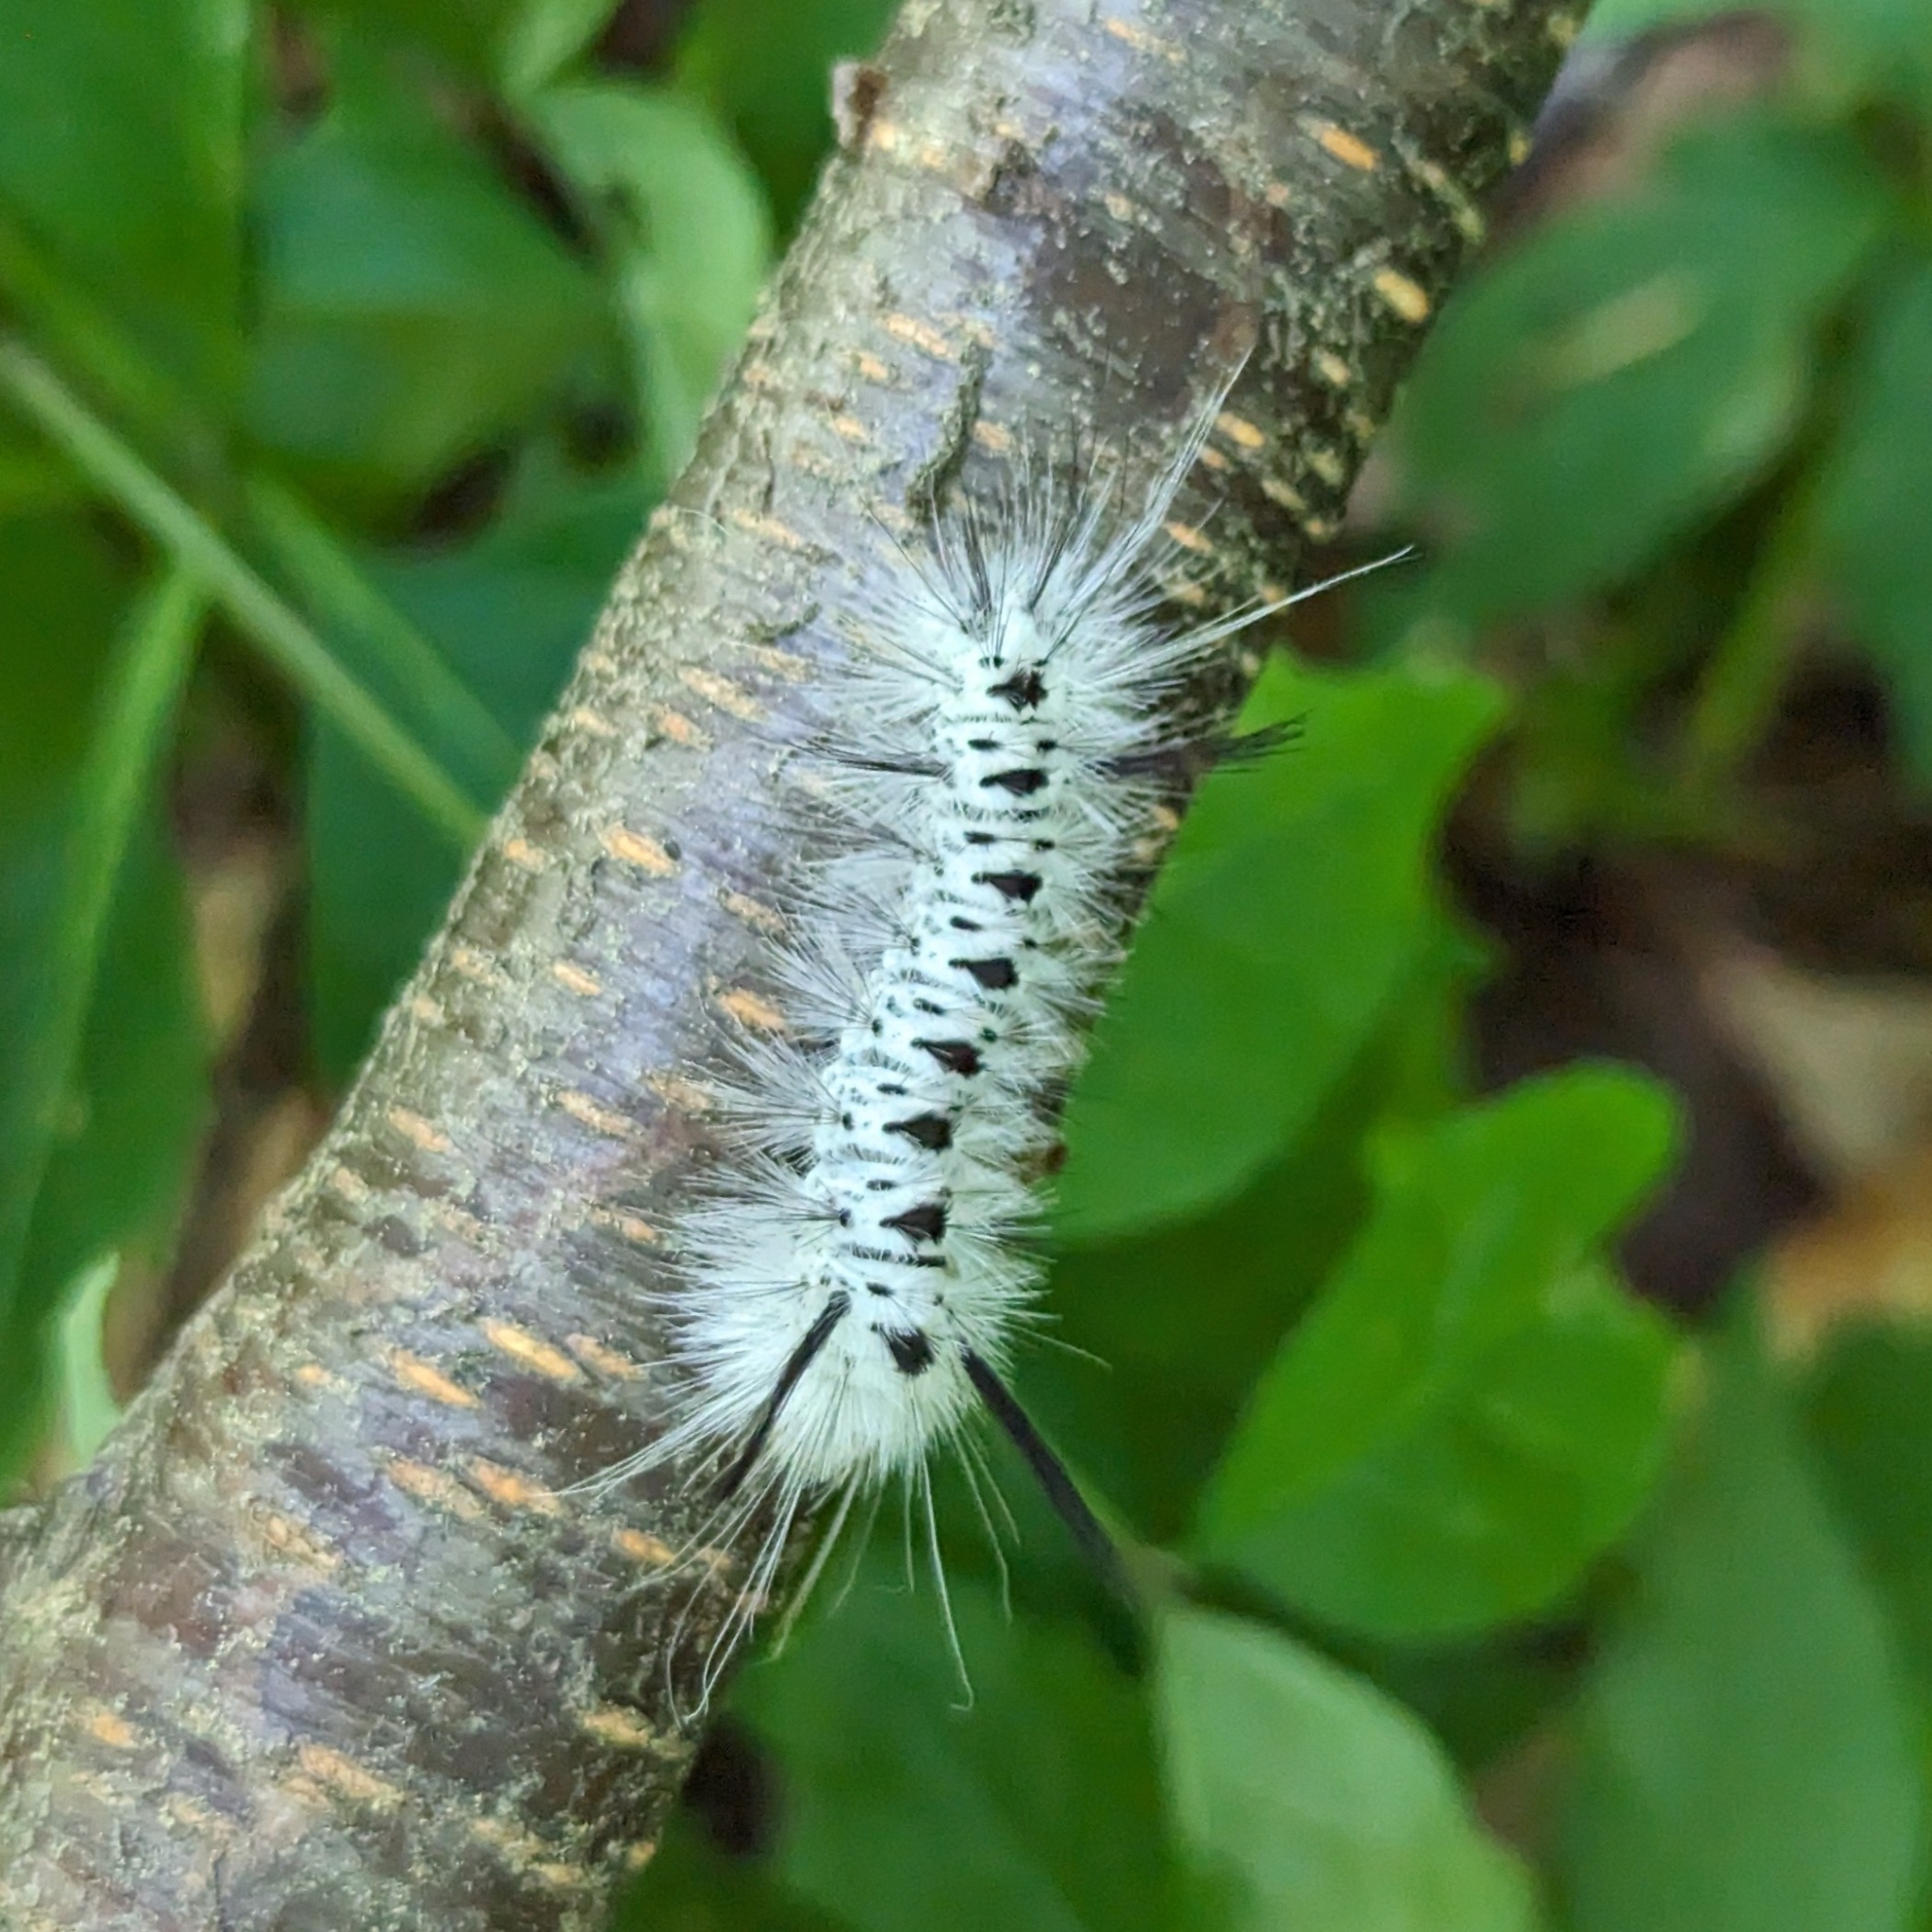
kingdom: Animalia
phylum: Arthropoda
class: Insecta
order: Lepidoptera
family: Erebidae
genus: Lophocampa
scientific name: Lophocampa caryae
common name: Hickory tussock moth
